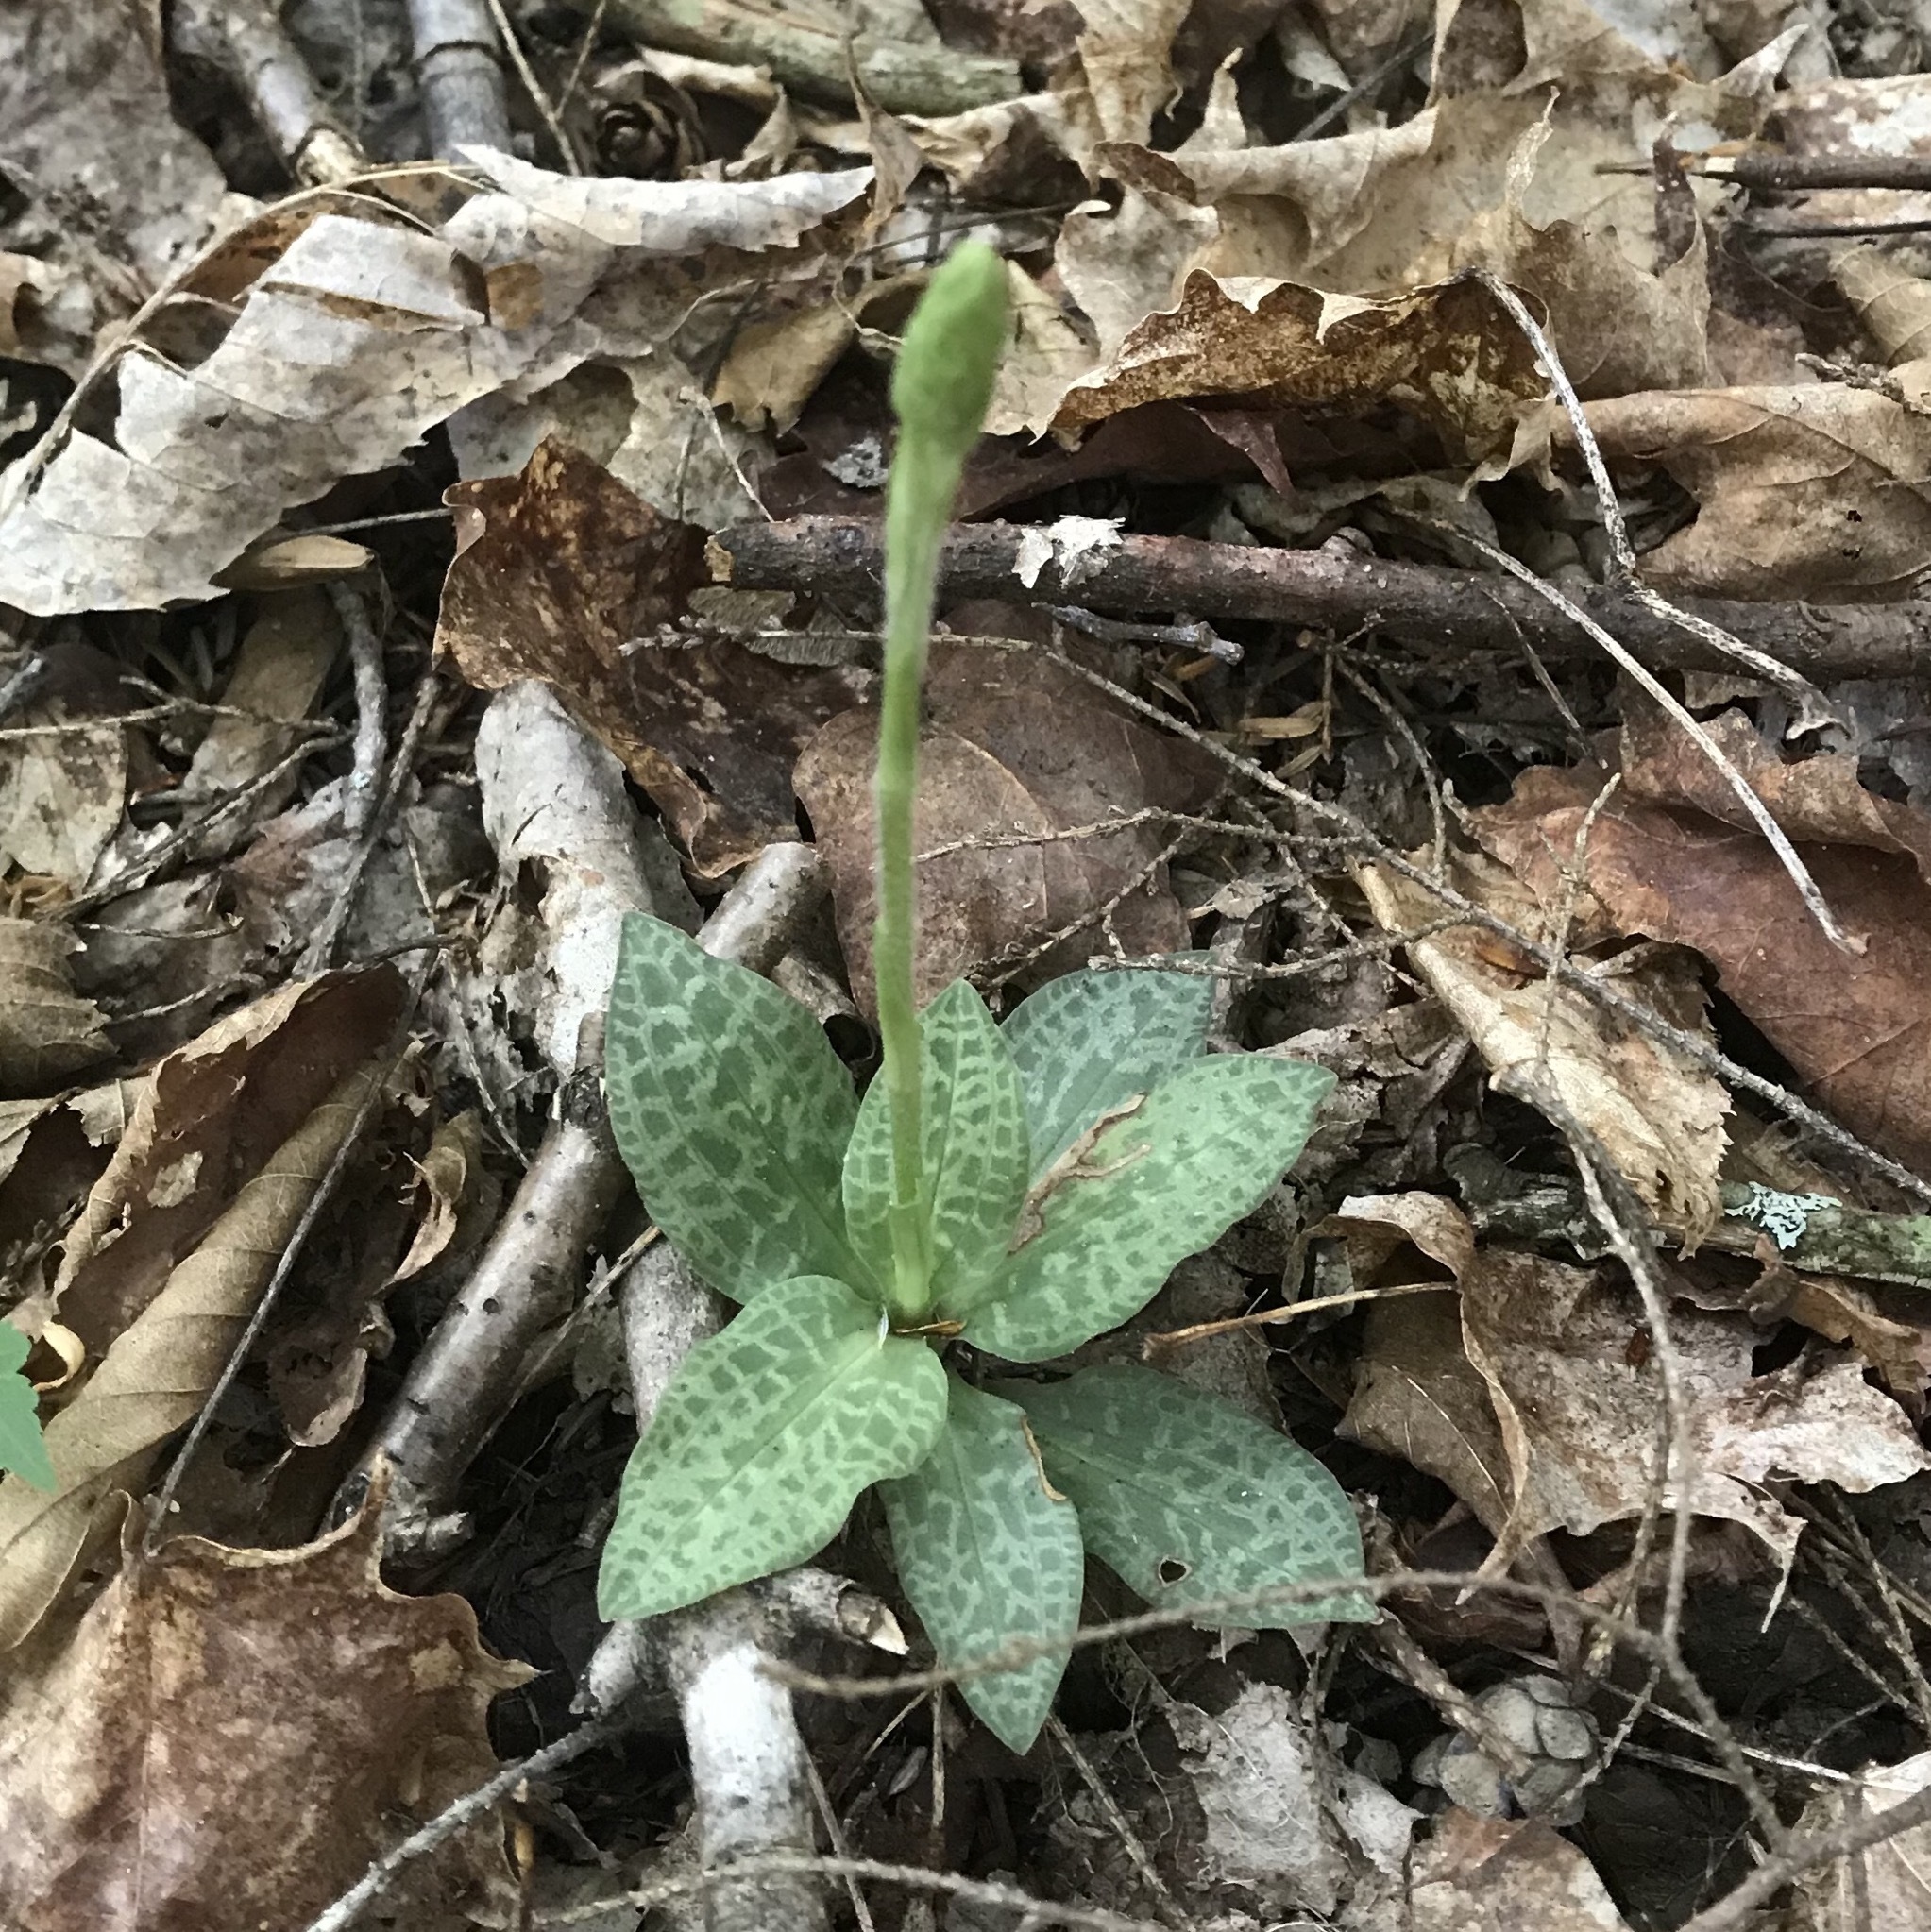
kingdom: Plantae
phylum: Tracheophyta
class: Liliopsida
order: Asparagales
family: Orchidaceae
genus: Goodyera
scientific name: Goodyera tesselata
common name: Checkered rattlesnake-plantain
